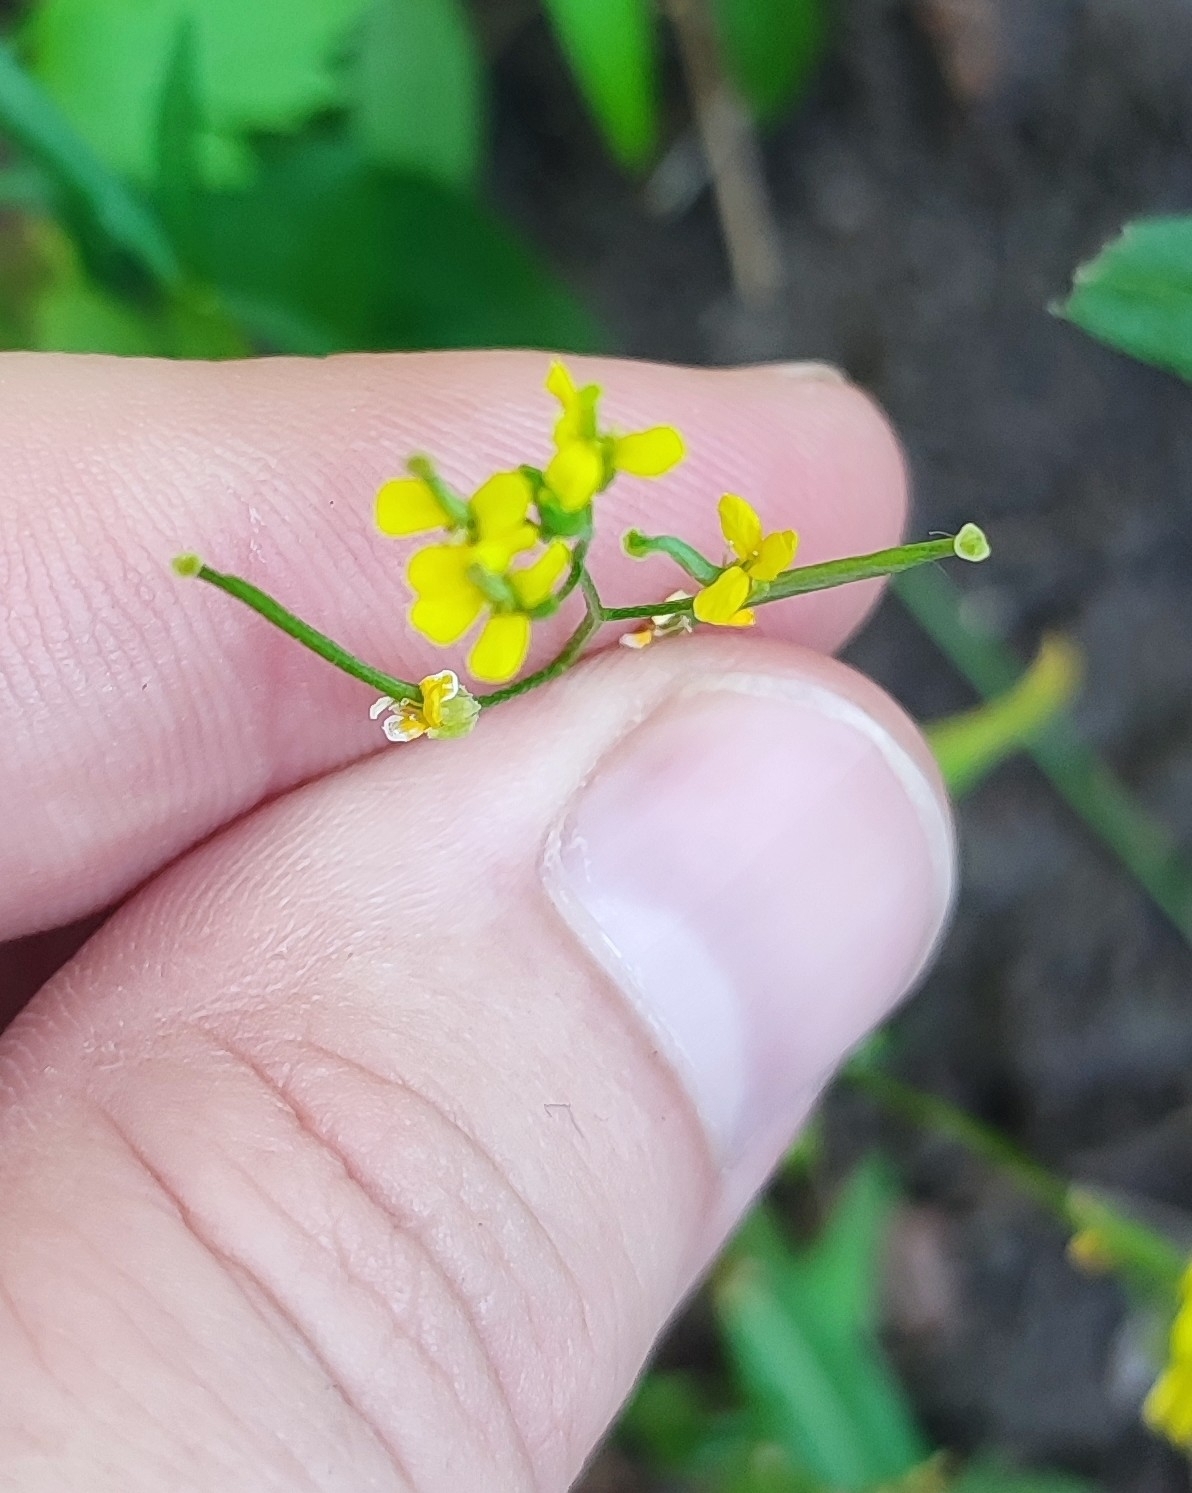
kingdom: Plantae
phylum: Tracheophyta
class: Magnoliopsida
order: Brassicales
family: Brassicaceae
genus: Erysimum
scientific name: Erysimum cheiranthoides
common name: Treacle mustard
